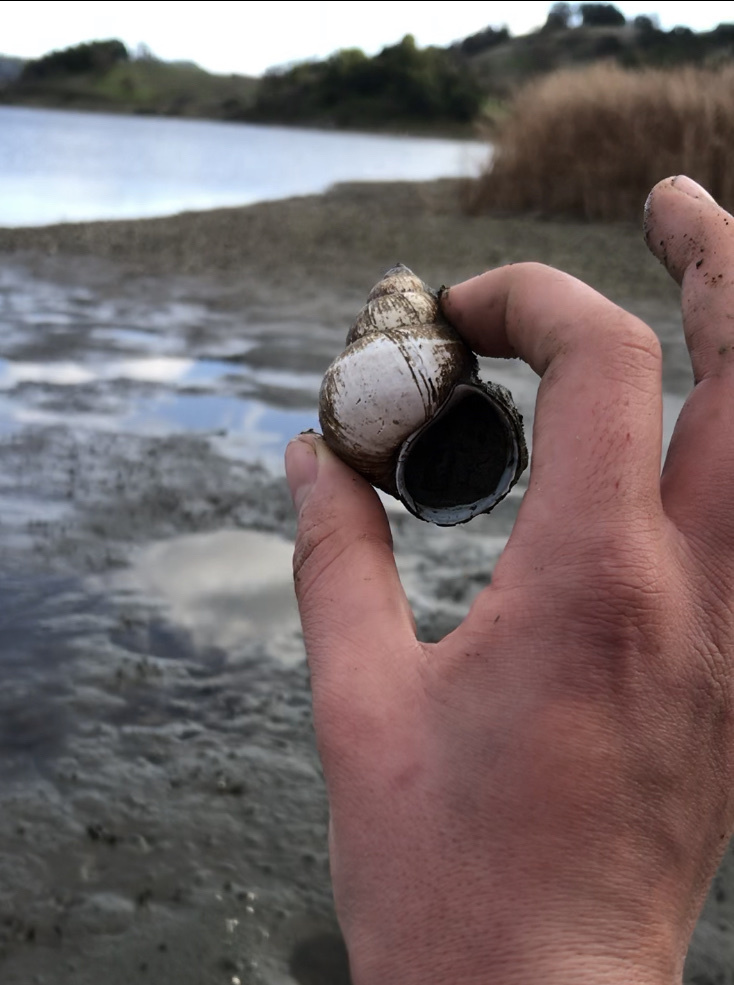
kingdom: Animalia
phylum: Mollusca
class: Gastropoda
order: Architaenioglossa
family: Viviparidae
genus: Cipangopaludina
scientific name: Cipangopaludina chinensis
